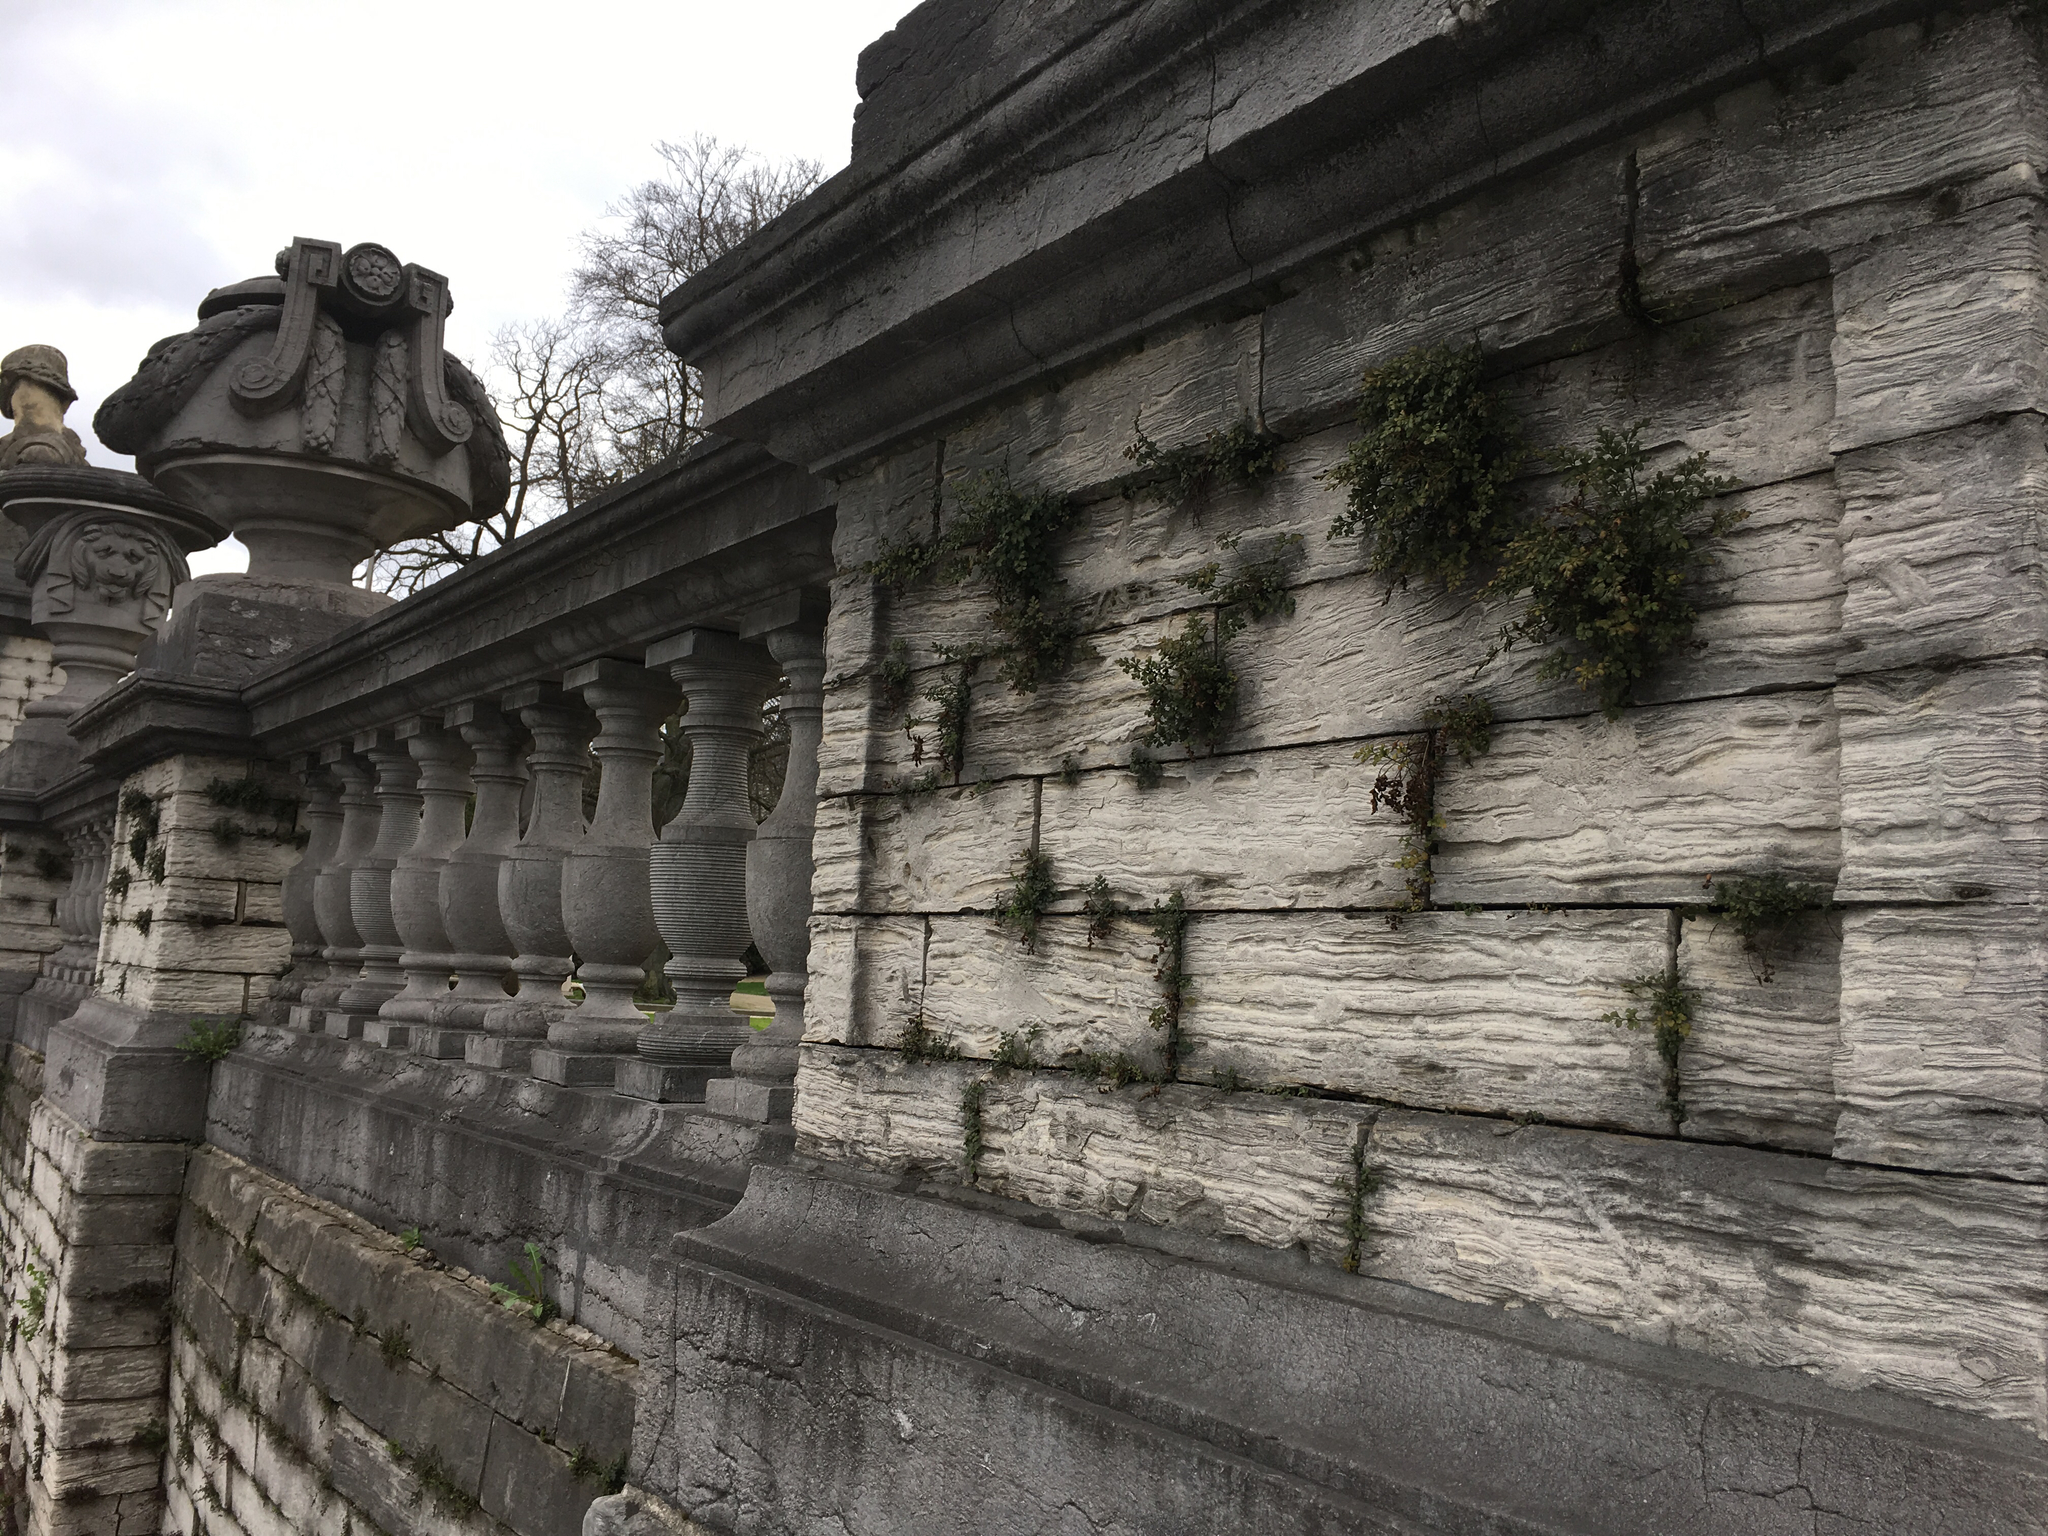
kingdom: Plantae
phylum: Tracheophyta
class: Polypodiopsida
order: Polypodiales
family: Aspleniaceae
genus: Asplenium
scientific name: Asplenium ruta-muraria
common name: Wall-rue
